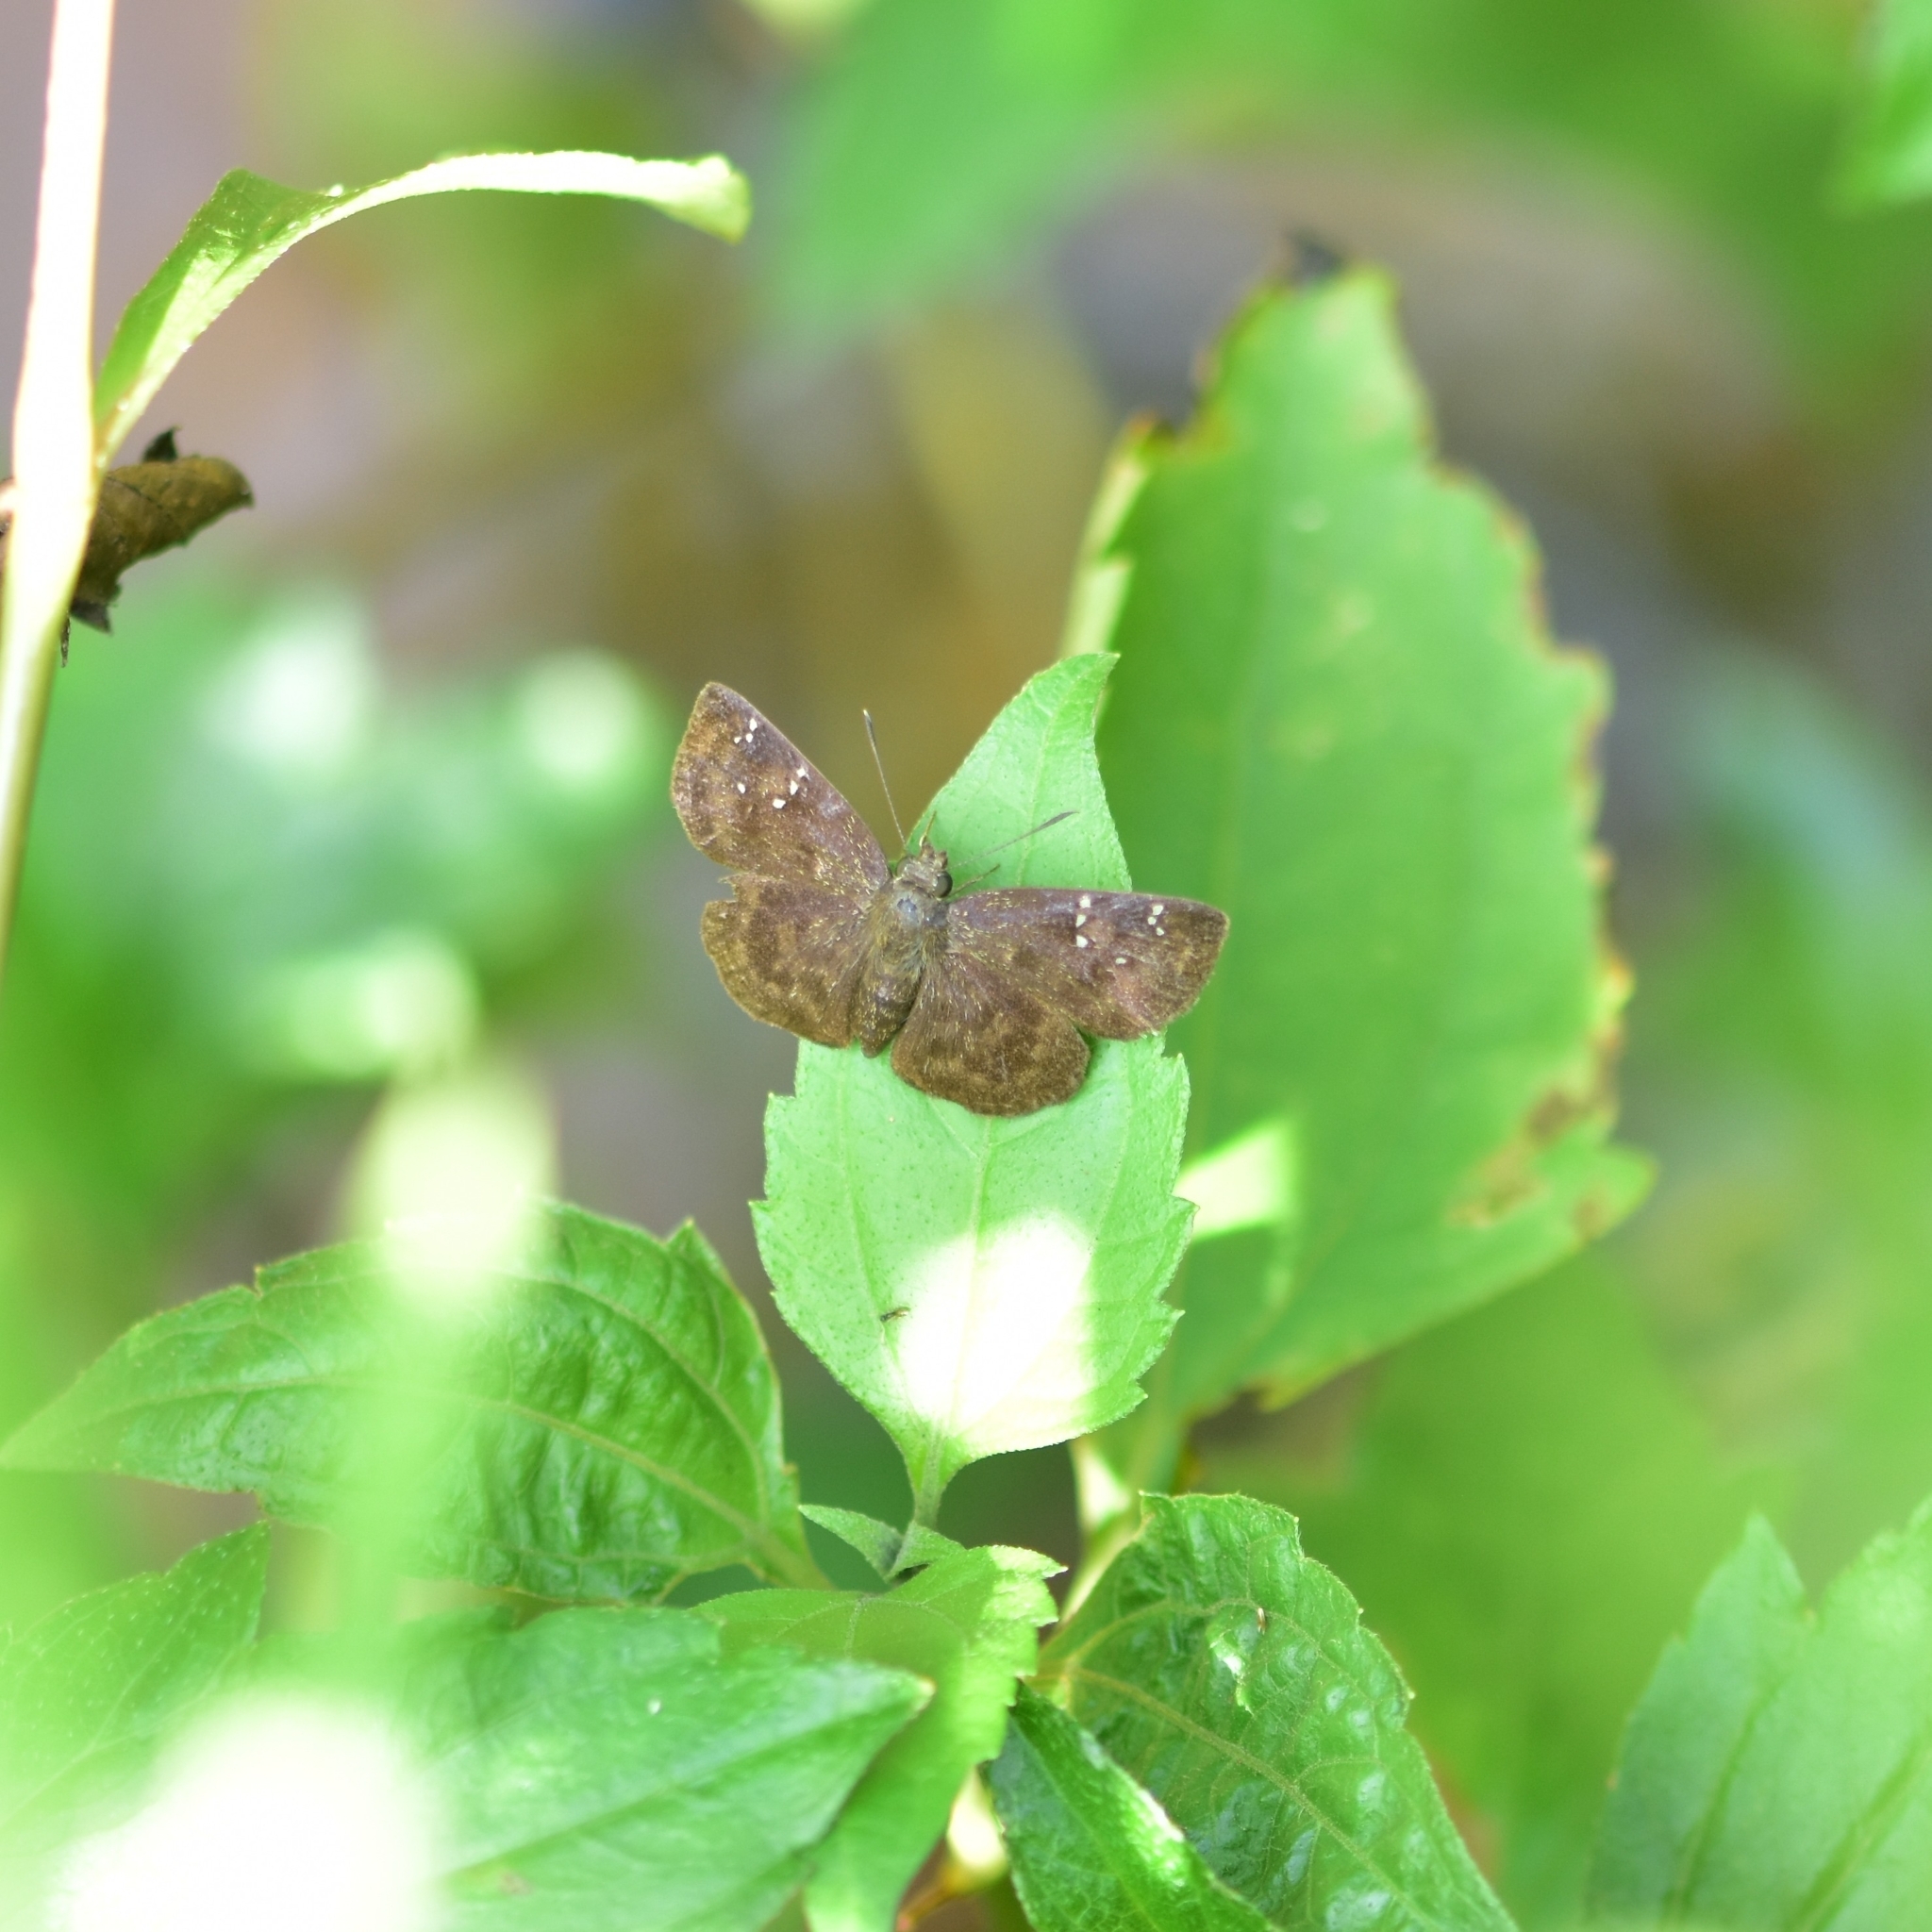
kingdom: Animalia
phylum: Arthropoda
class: Insecta
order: Lepidoptera
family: Hesperiidae
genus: Sarangesa
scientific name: Sarangesa dasahara
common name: Common small flat
